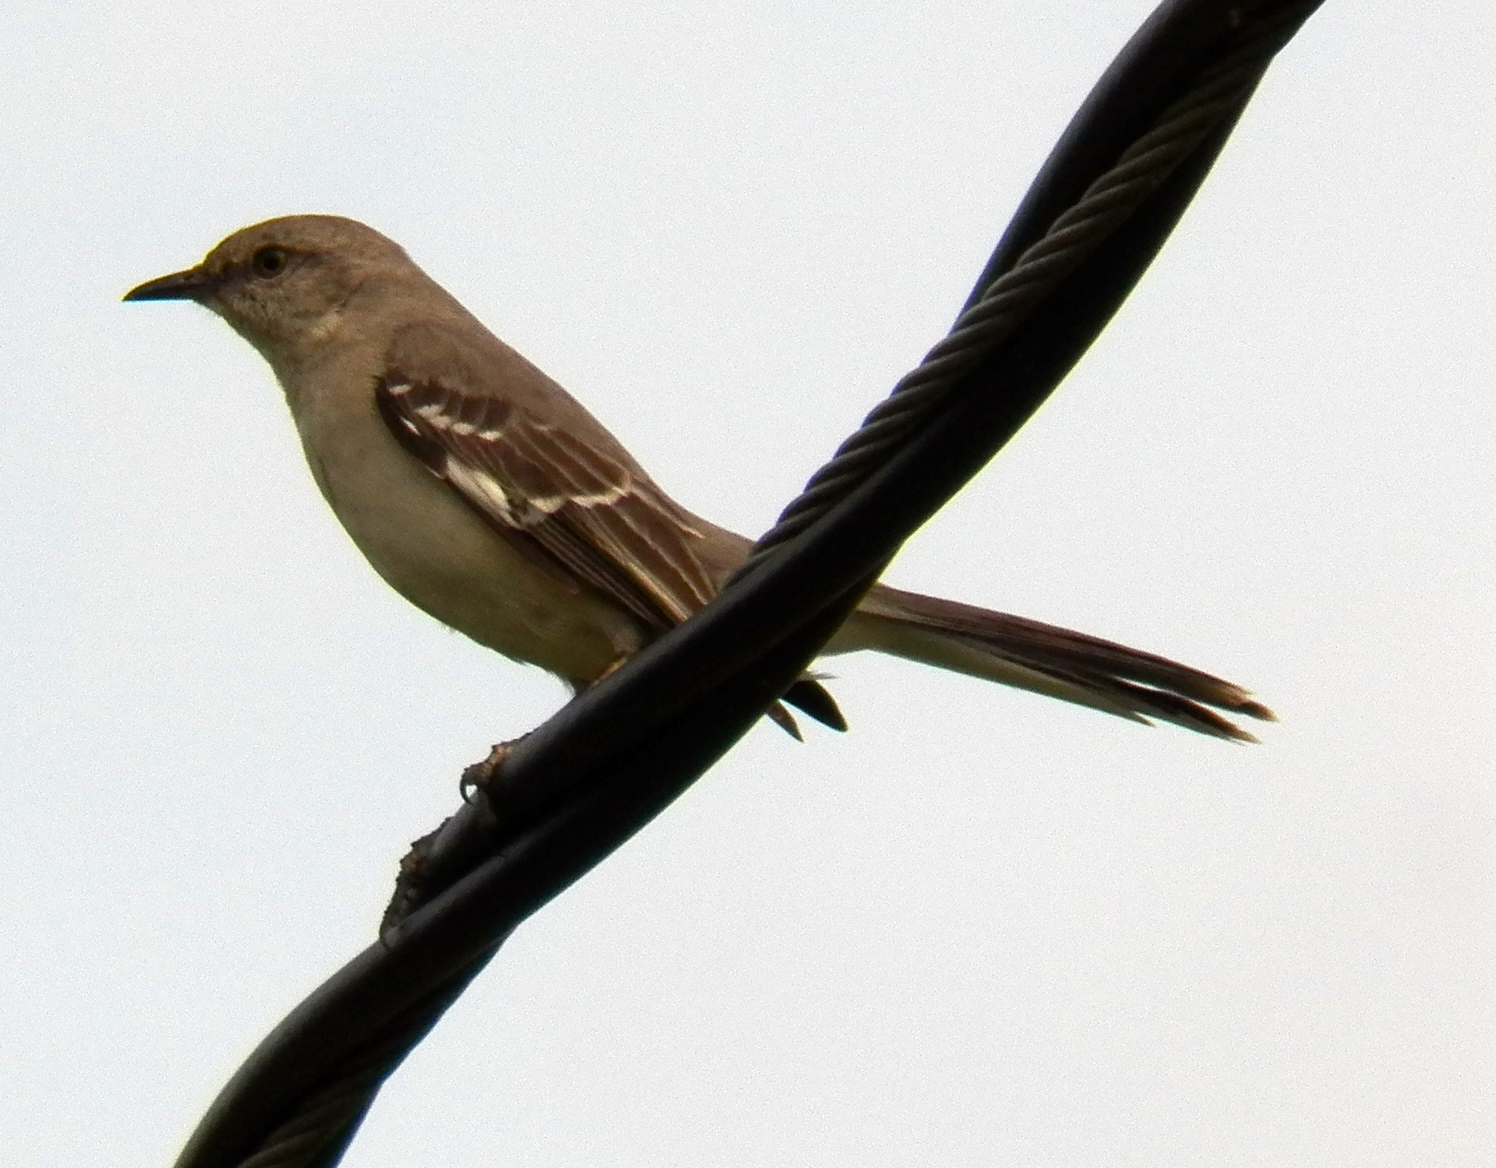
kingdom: Animalia
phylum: Chordata
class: Aves
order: Passeriformes
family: Mimidae
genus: Mimus
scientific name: Mimus polyglottos
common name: Northern mockingbird
